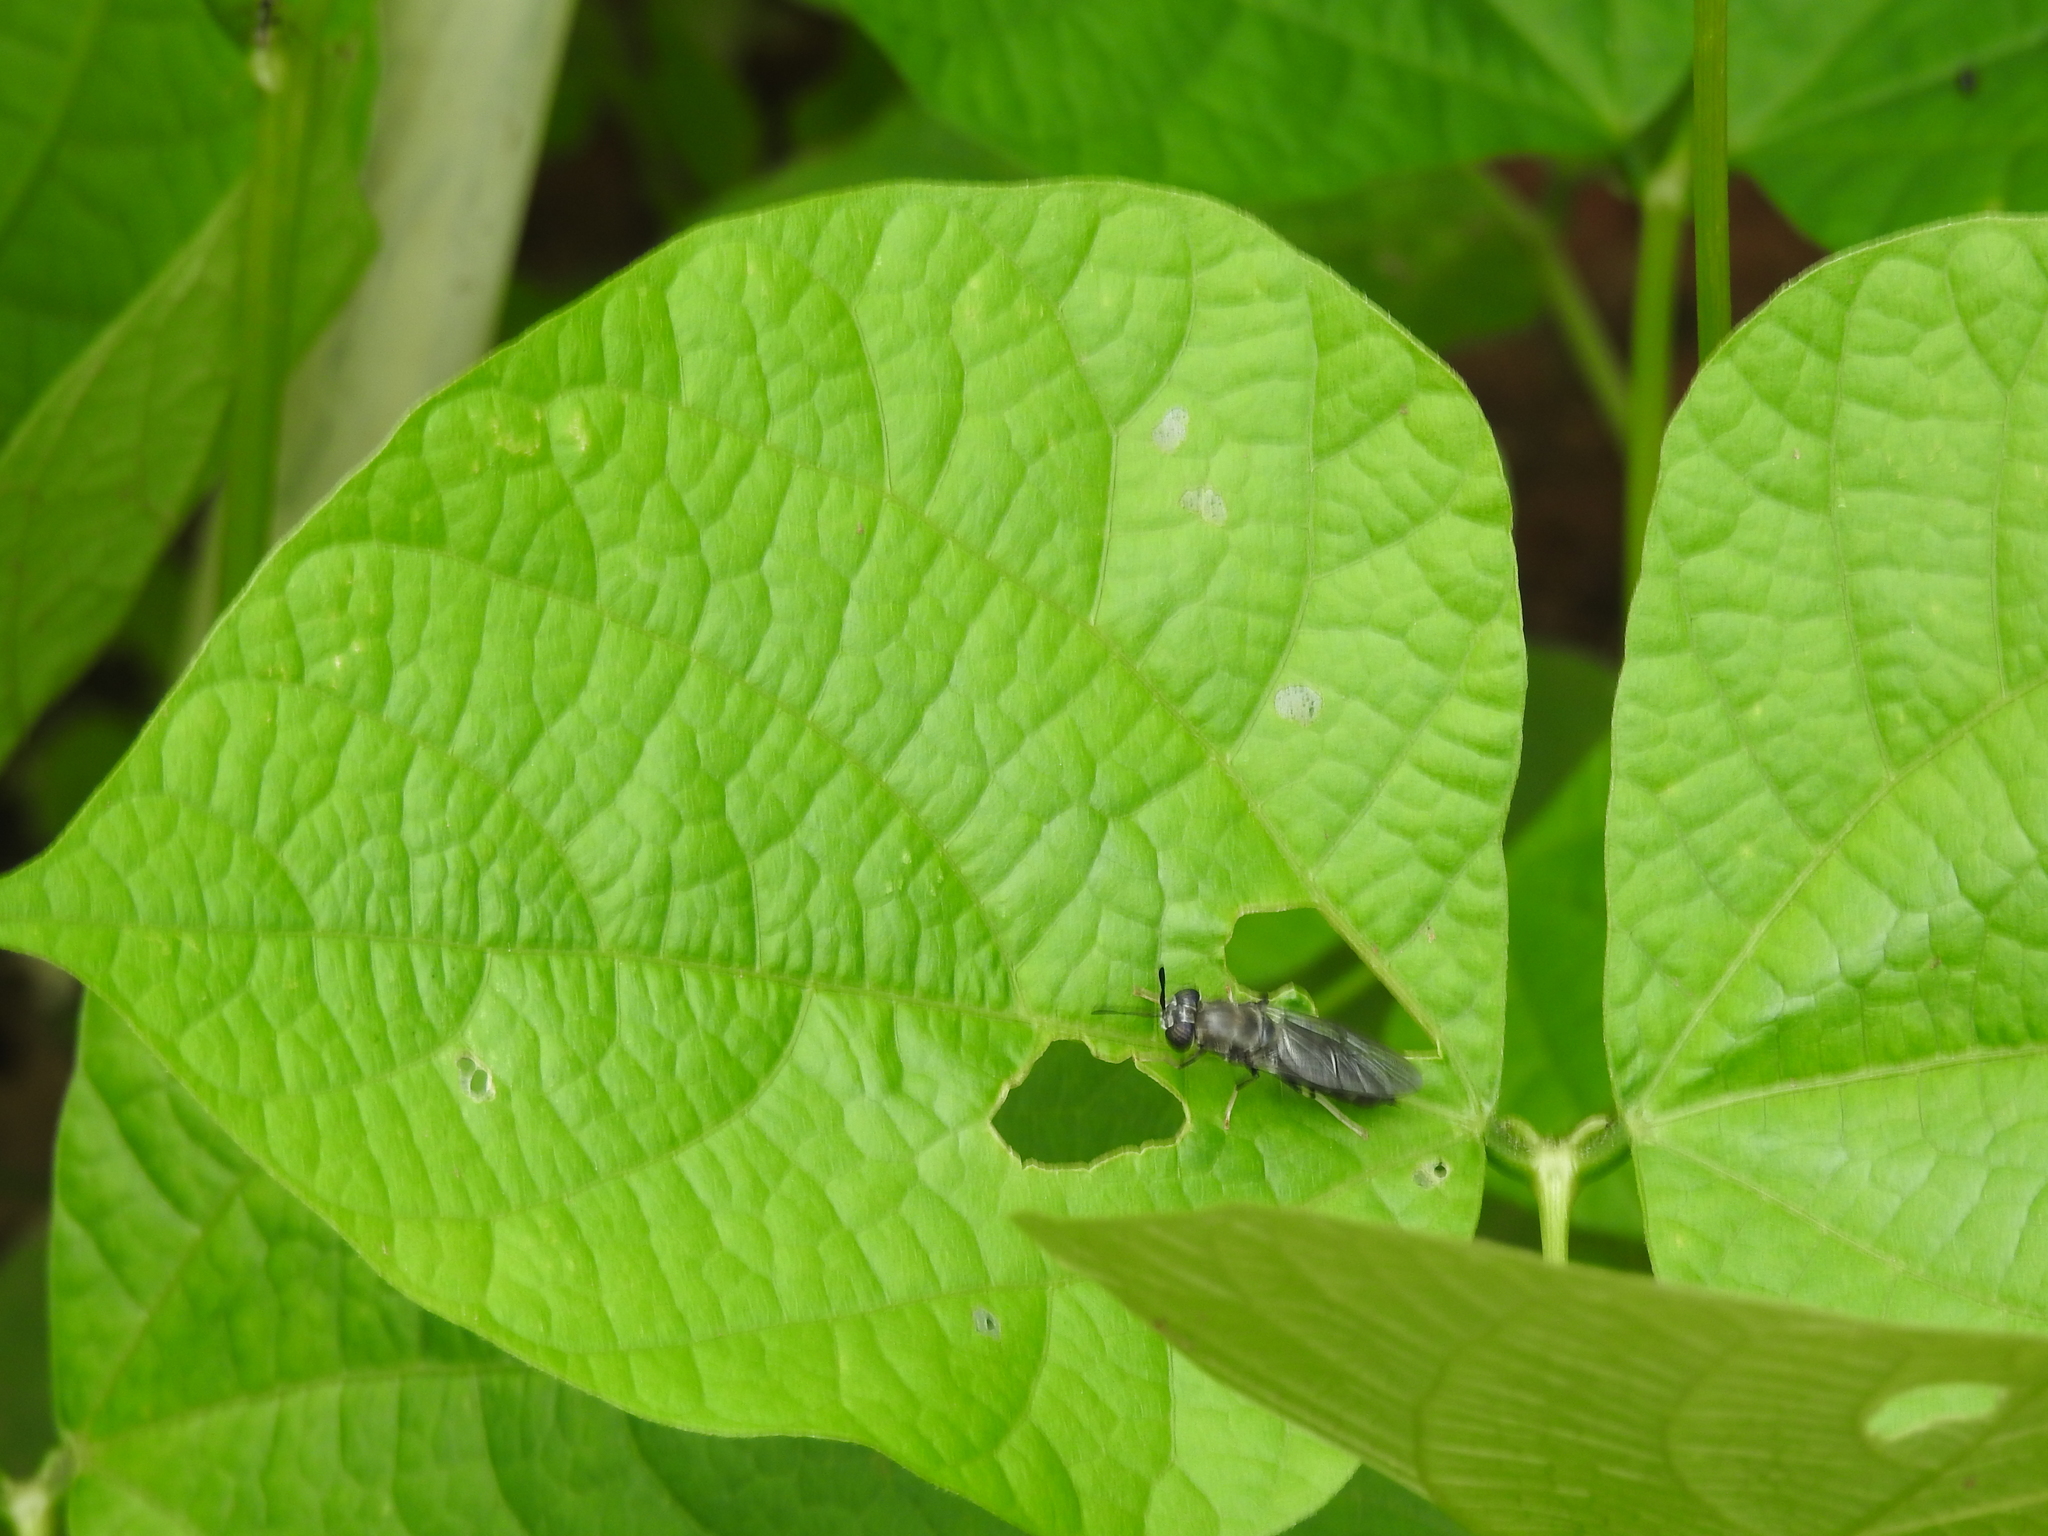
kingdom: Animalia
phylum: Arthropoda
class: Insecta
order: Diptera
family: Stratiomyidae
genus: Hermetia
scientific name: Hermetia illucens
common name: Black soldier fly
